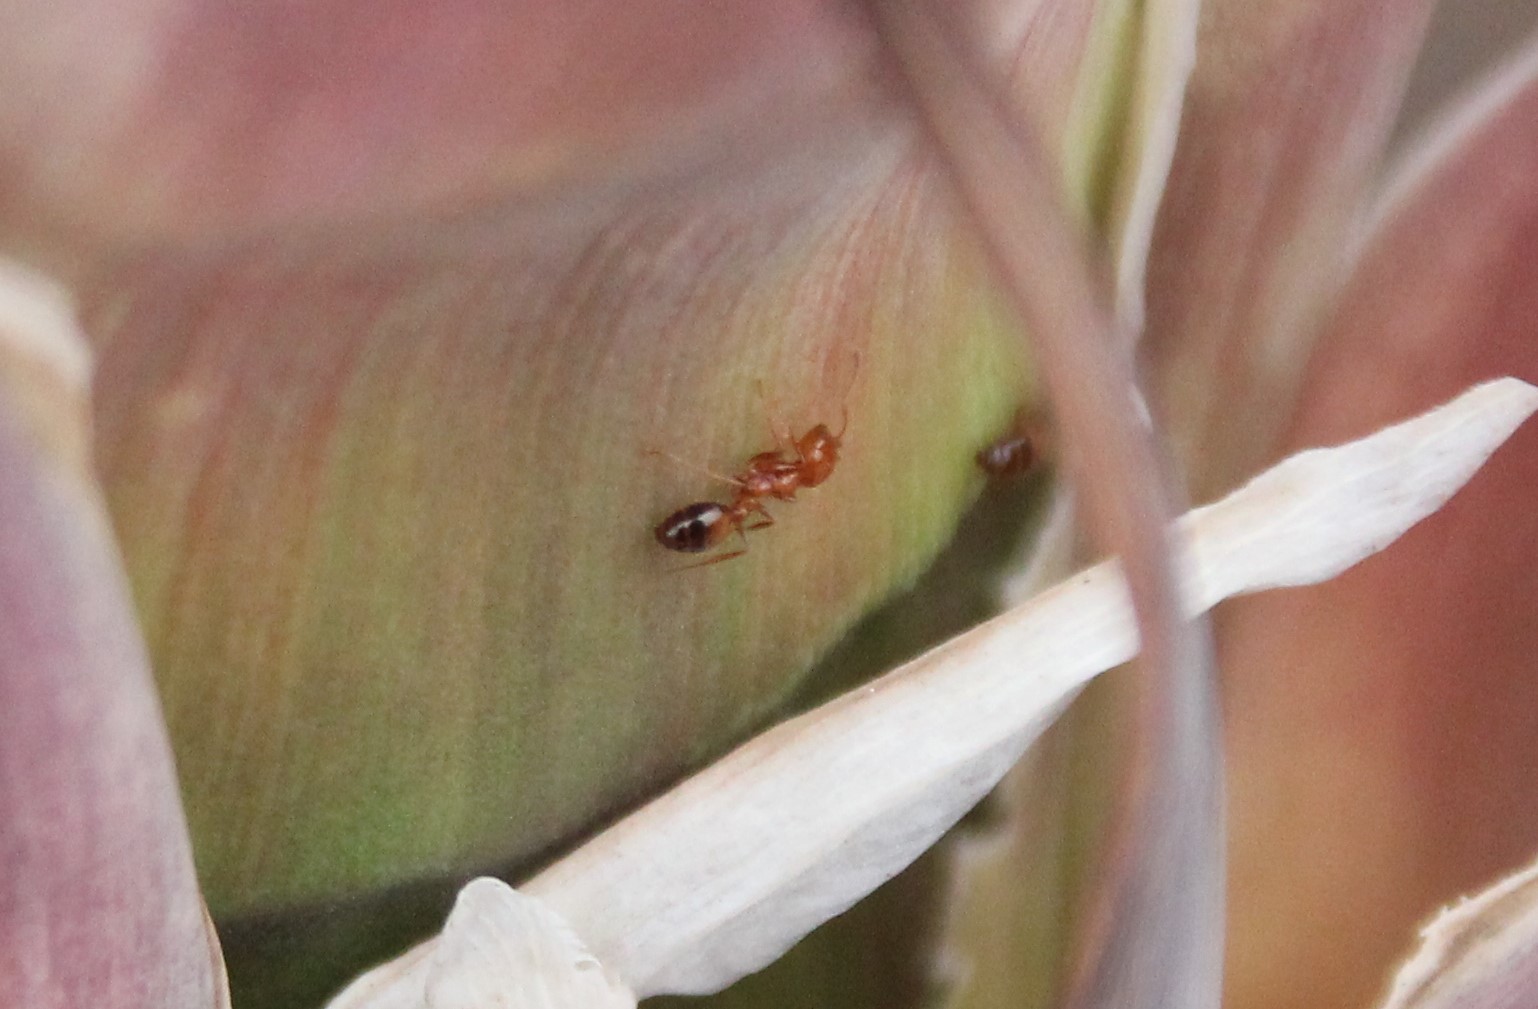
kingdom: Animalia
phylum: Arthropoda
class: Insecta
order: Hymenoptera
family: Formicidae
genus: Solenopsis
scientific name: Solenopsis xyloni
